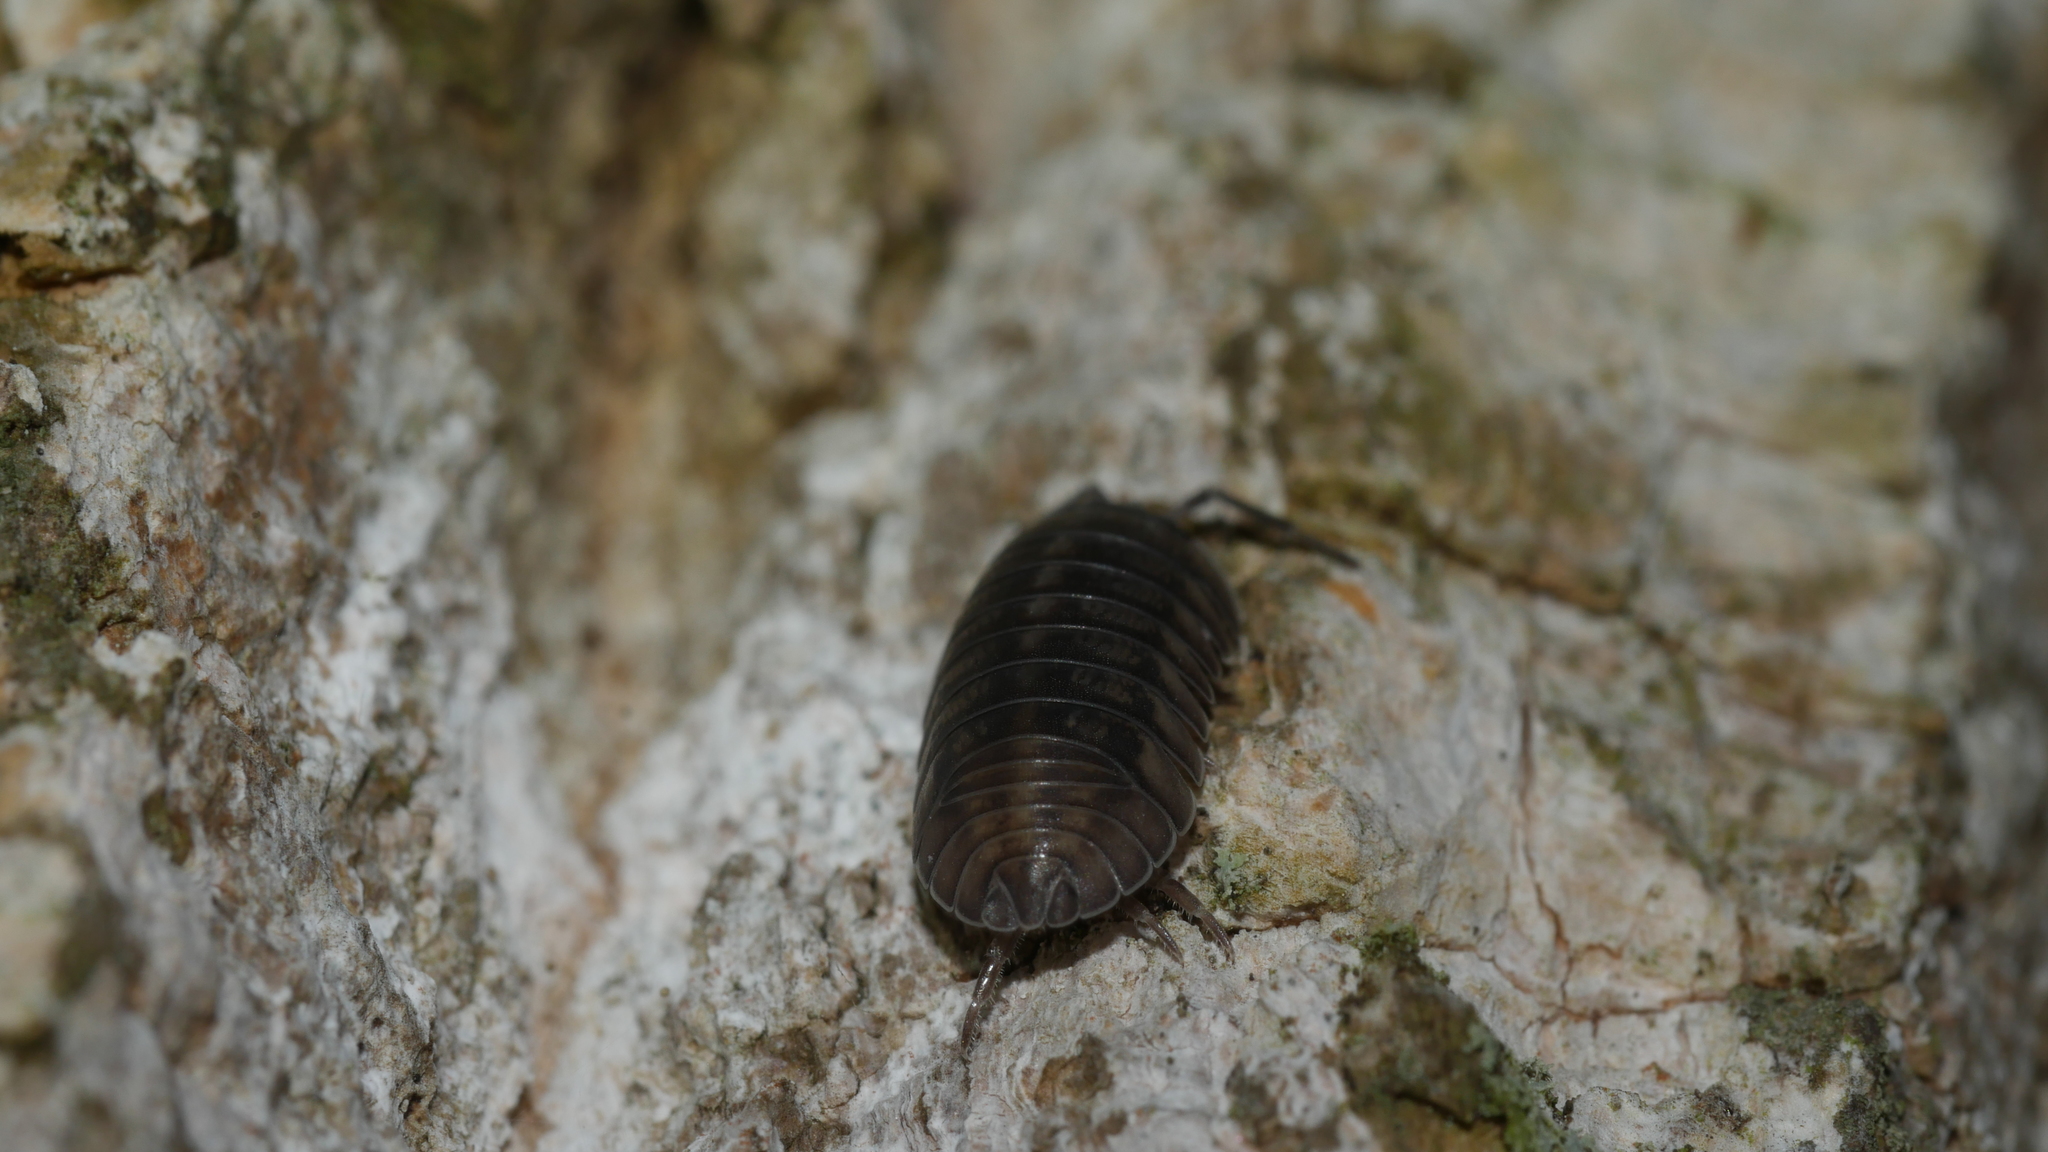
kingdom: Animalia
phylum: Arthropoda
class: Malacostraca
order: Isopoda
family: Armadillidiidae
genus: Armadillidium
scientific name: Armadillidium nasatum
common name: Isopod
